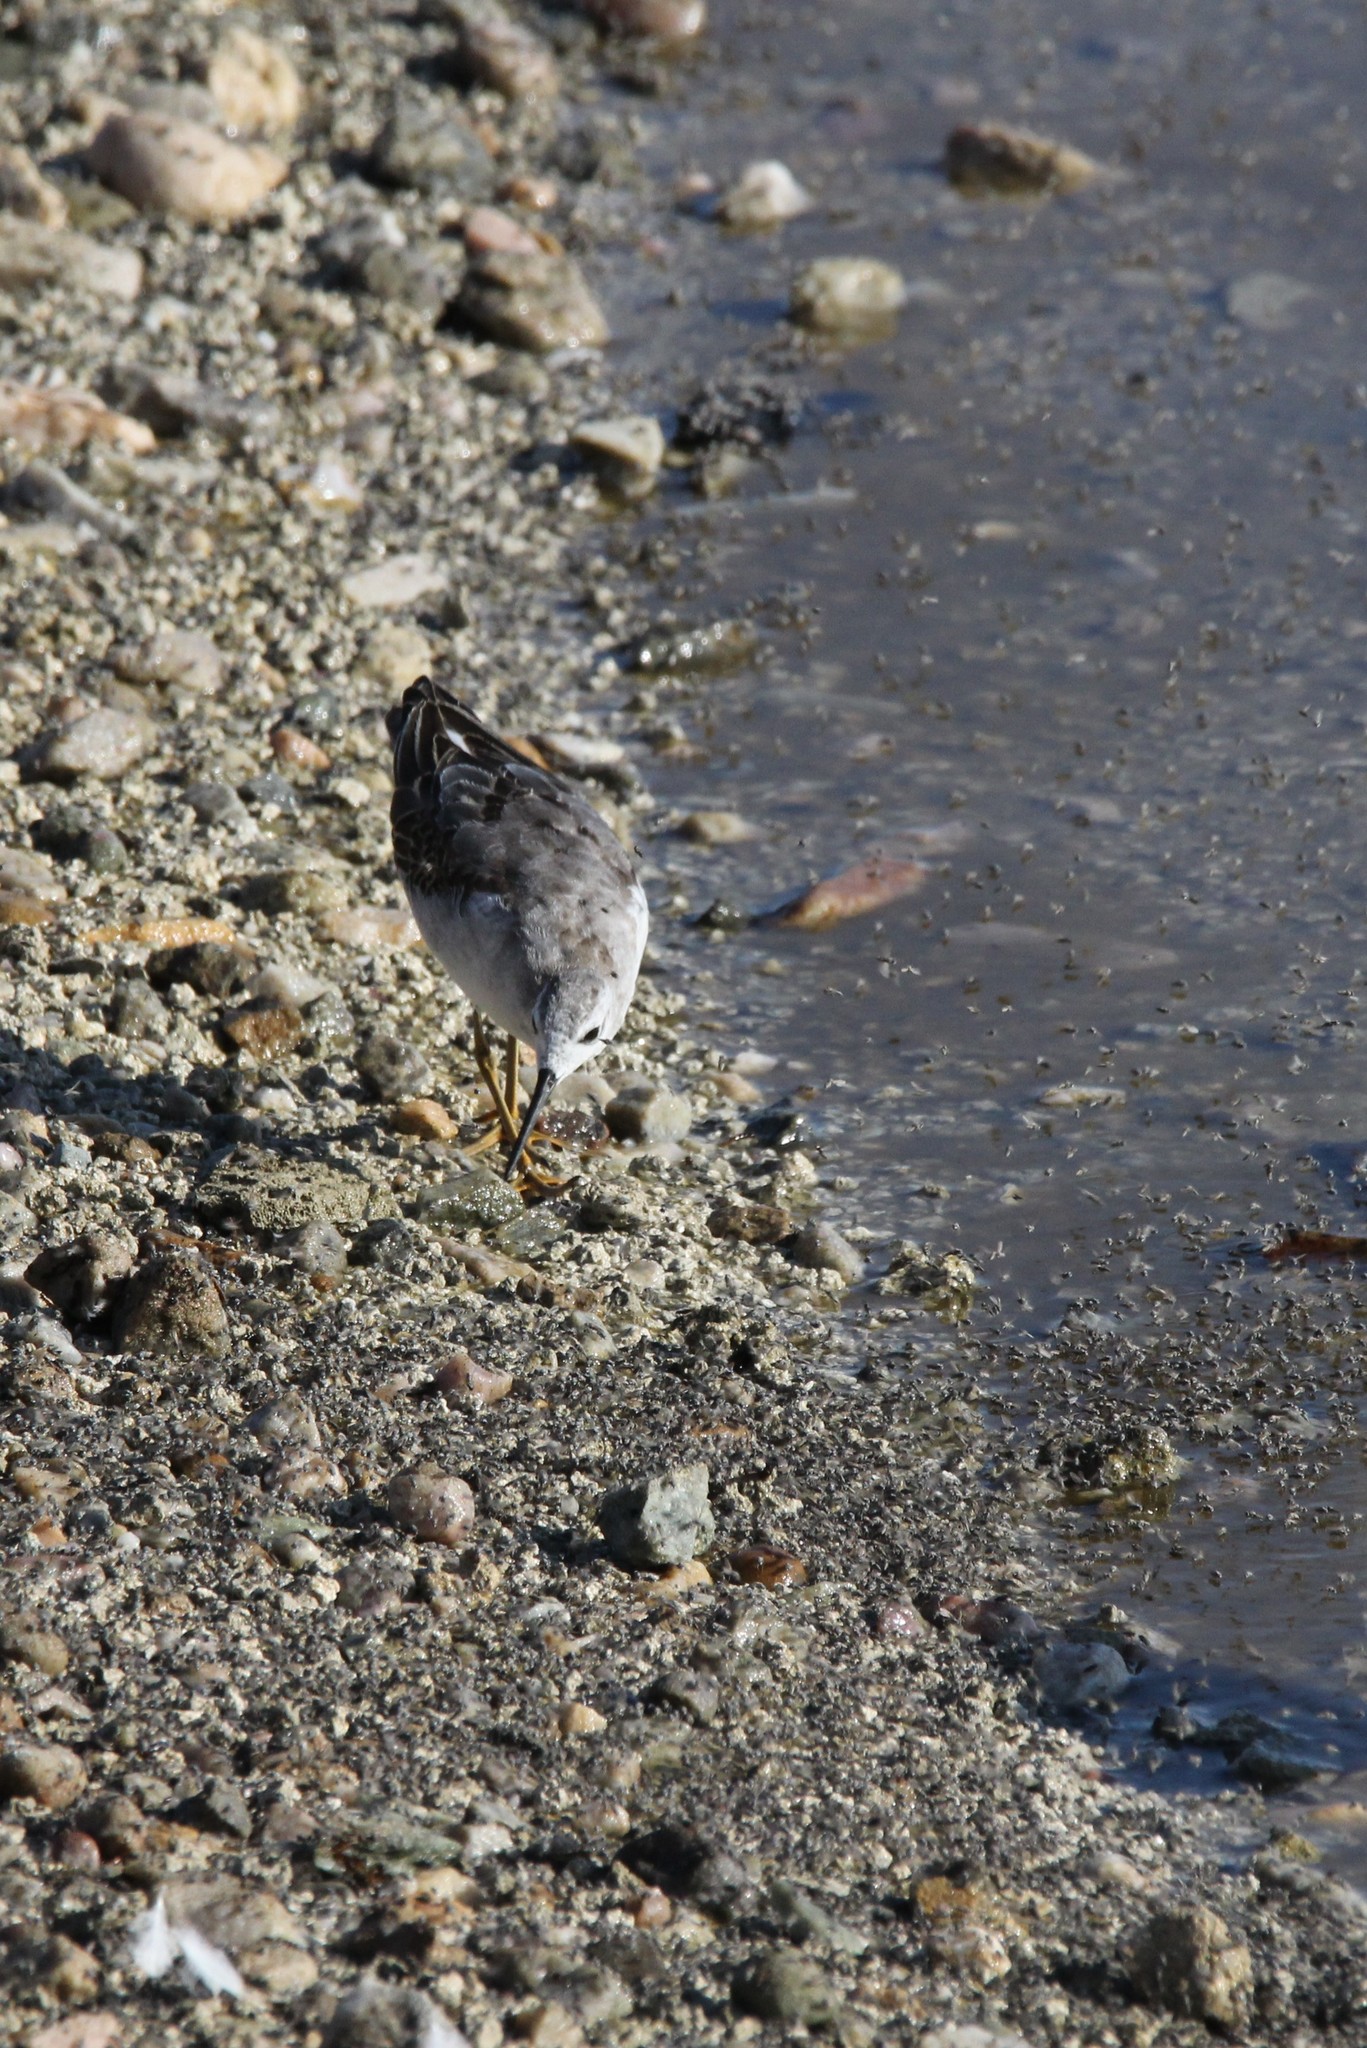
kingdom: Animalia
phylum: Chordata
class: Aves
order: Charadriiformes
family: Scolopacidae
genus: Phalaropus
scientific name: Phalaropus tricolor
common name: Wilson's phalarope
